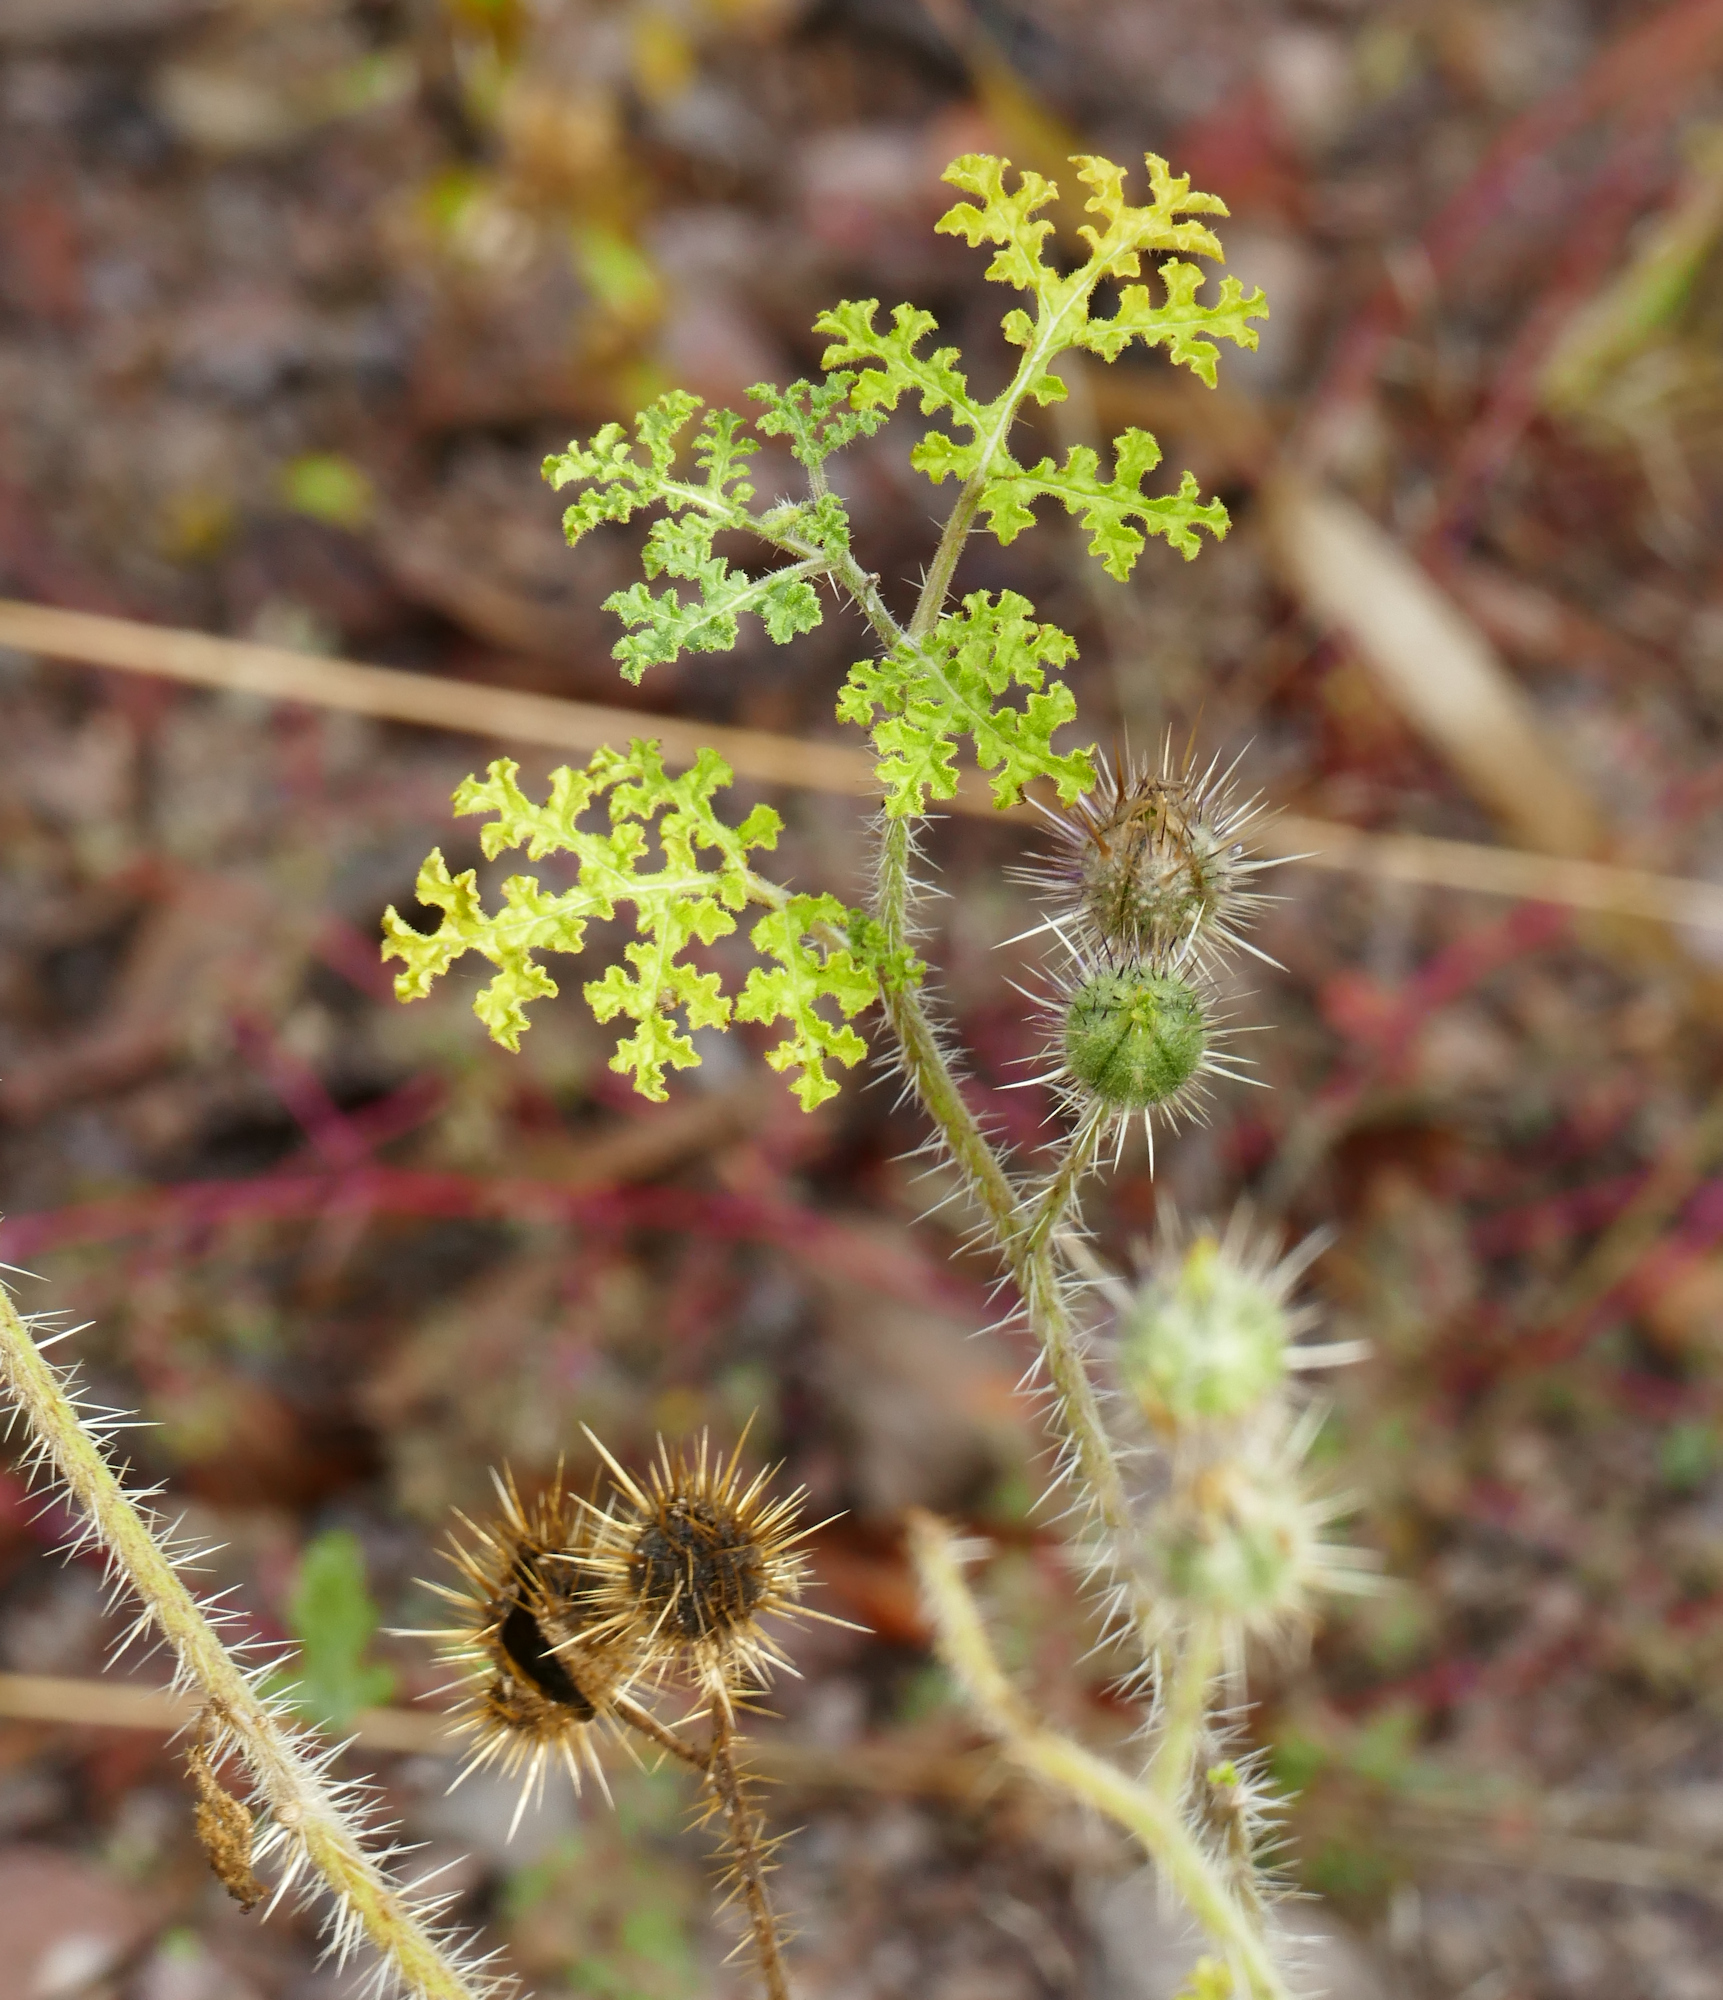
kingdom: Plantae
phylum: Tracheophyta
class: Magnoliopsida
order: Solanales
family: Solanaceae
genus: Solanum
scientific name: Solanum heterodoxum
